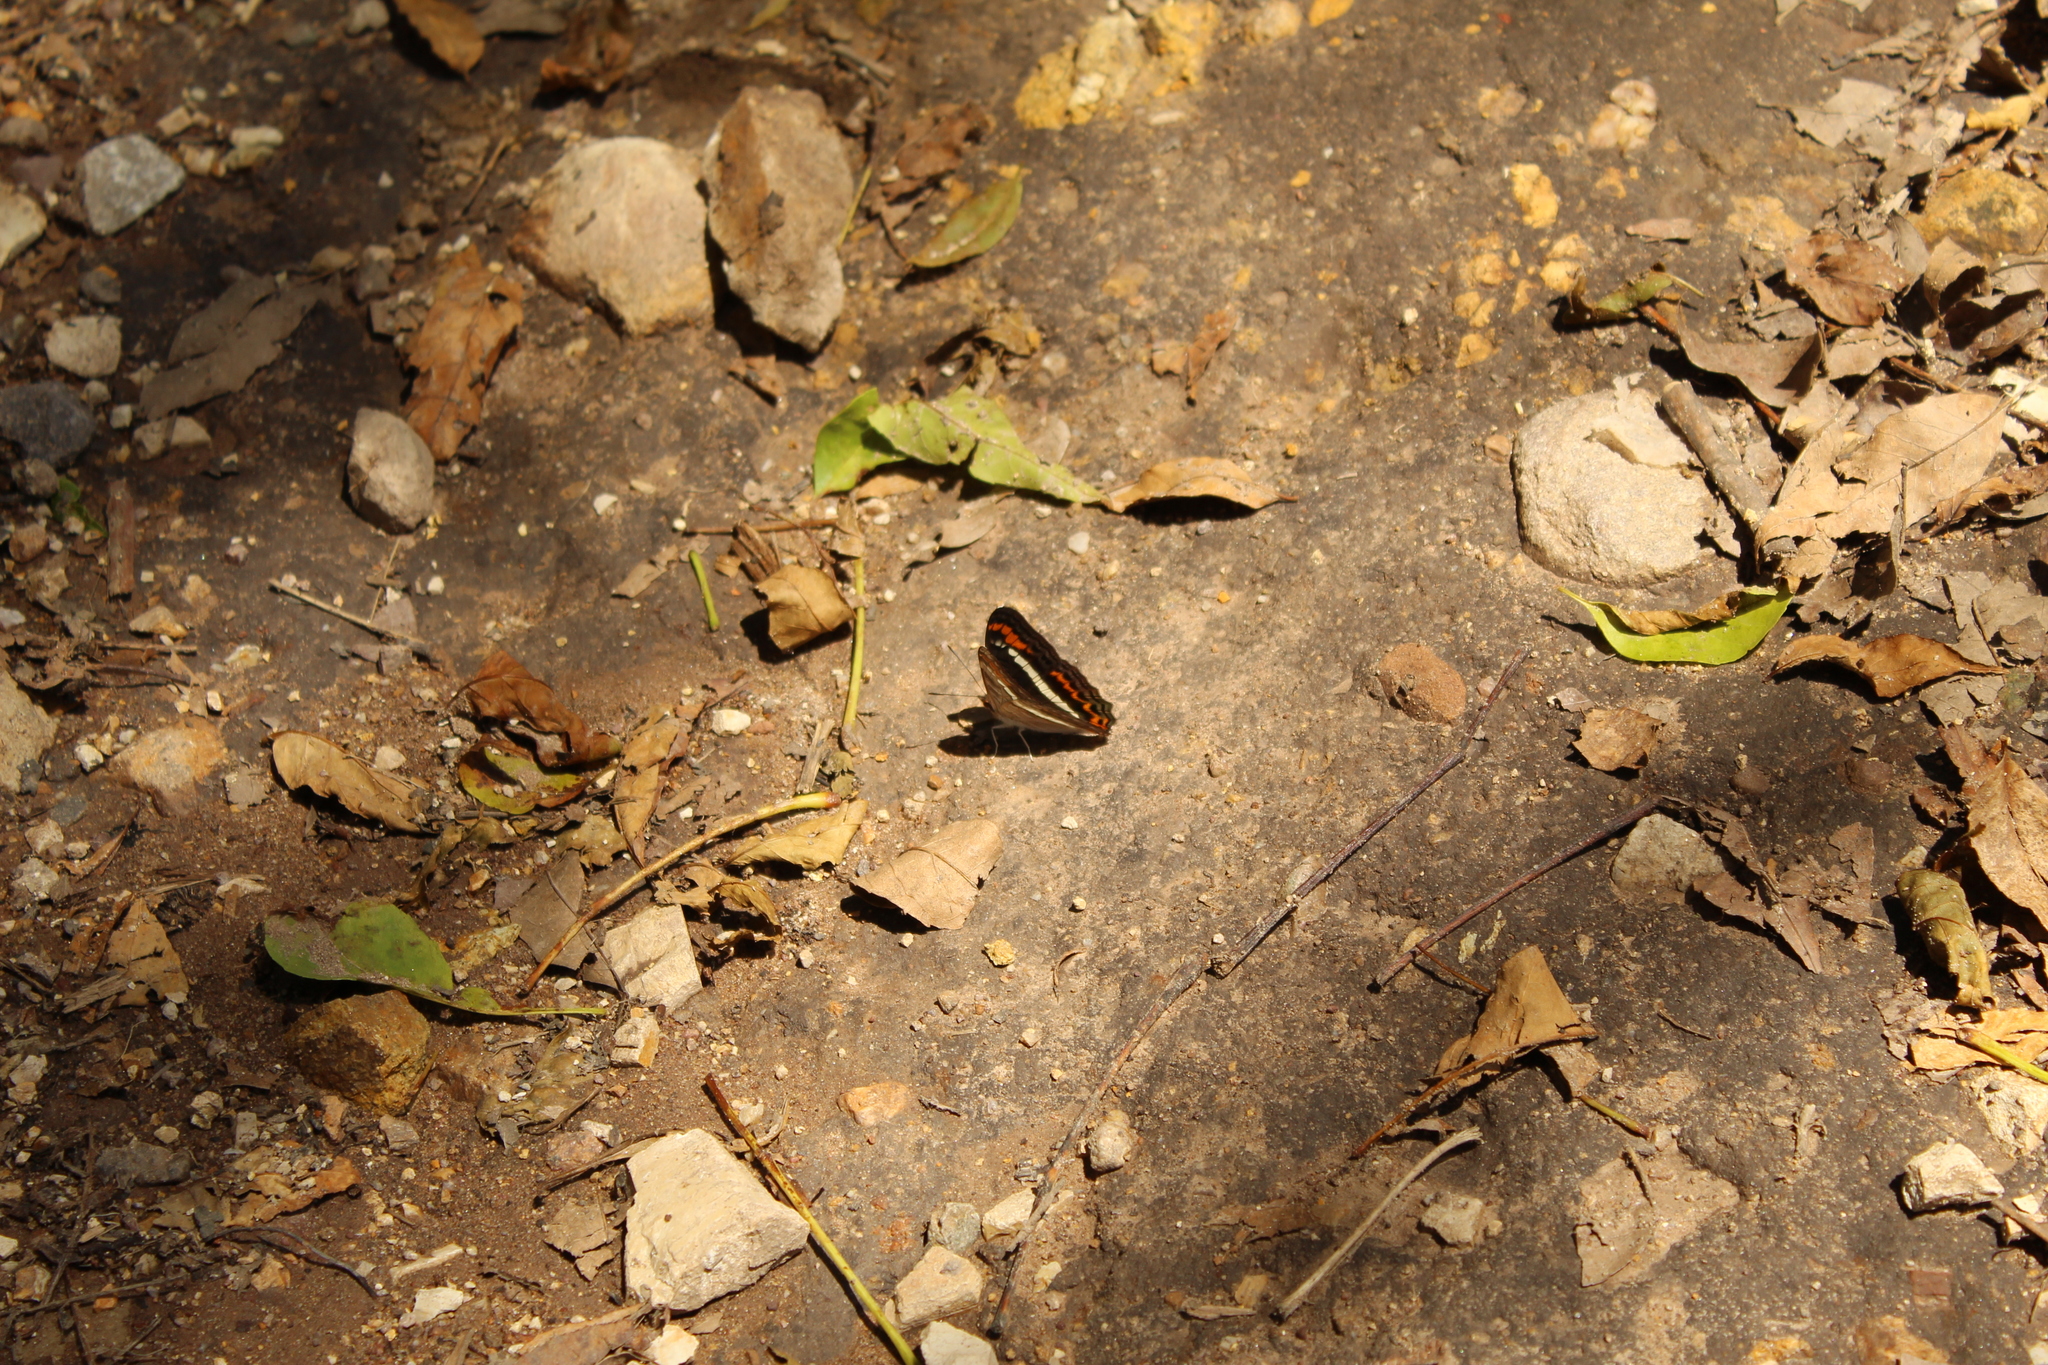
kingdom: Animalia
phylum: Arthropoda
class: Insecta
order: Lepidoptera
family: Nymphalidae
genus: Limenitis
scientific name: Limenitis corcyra
